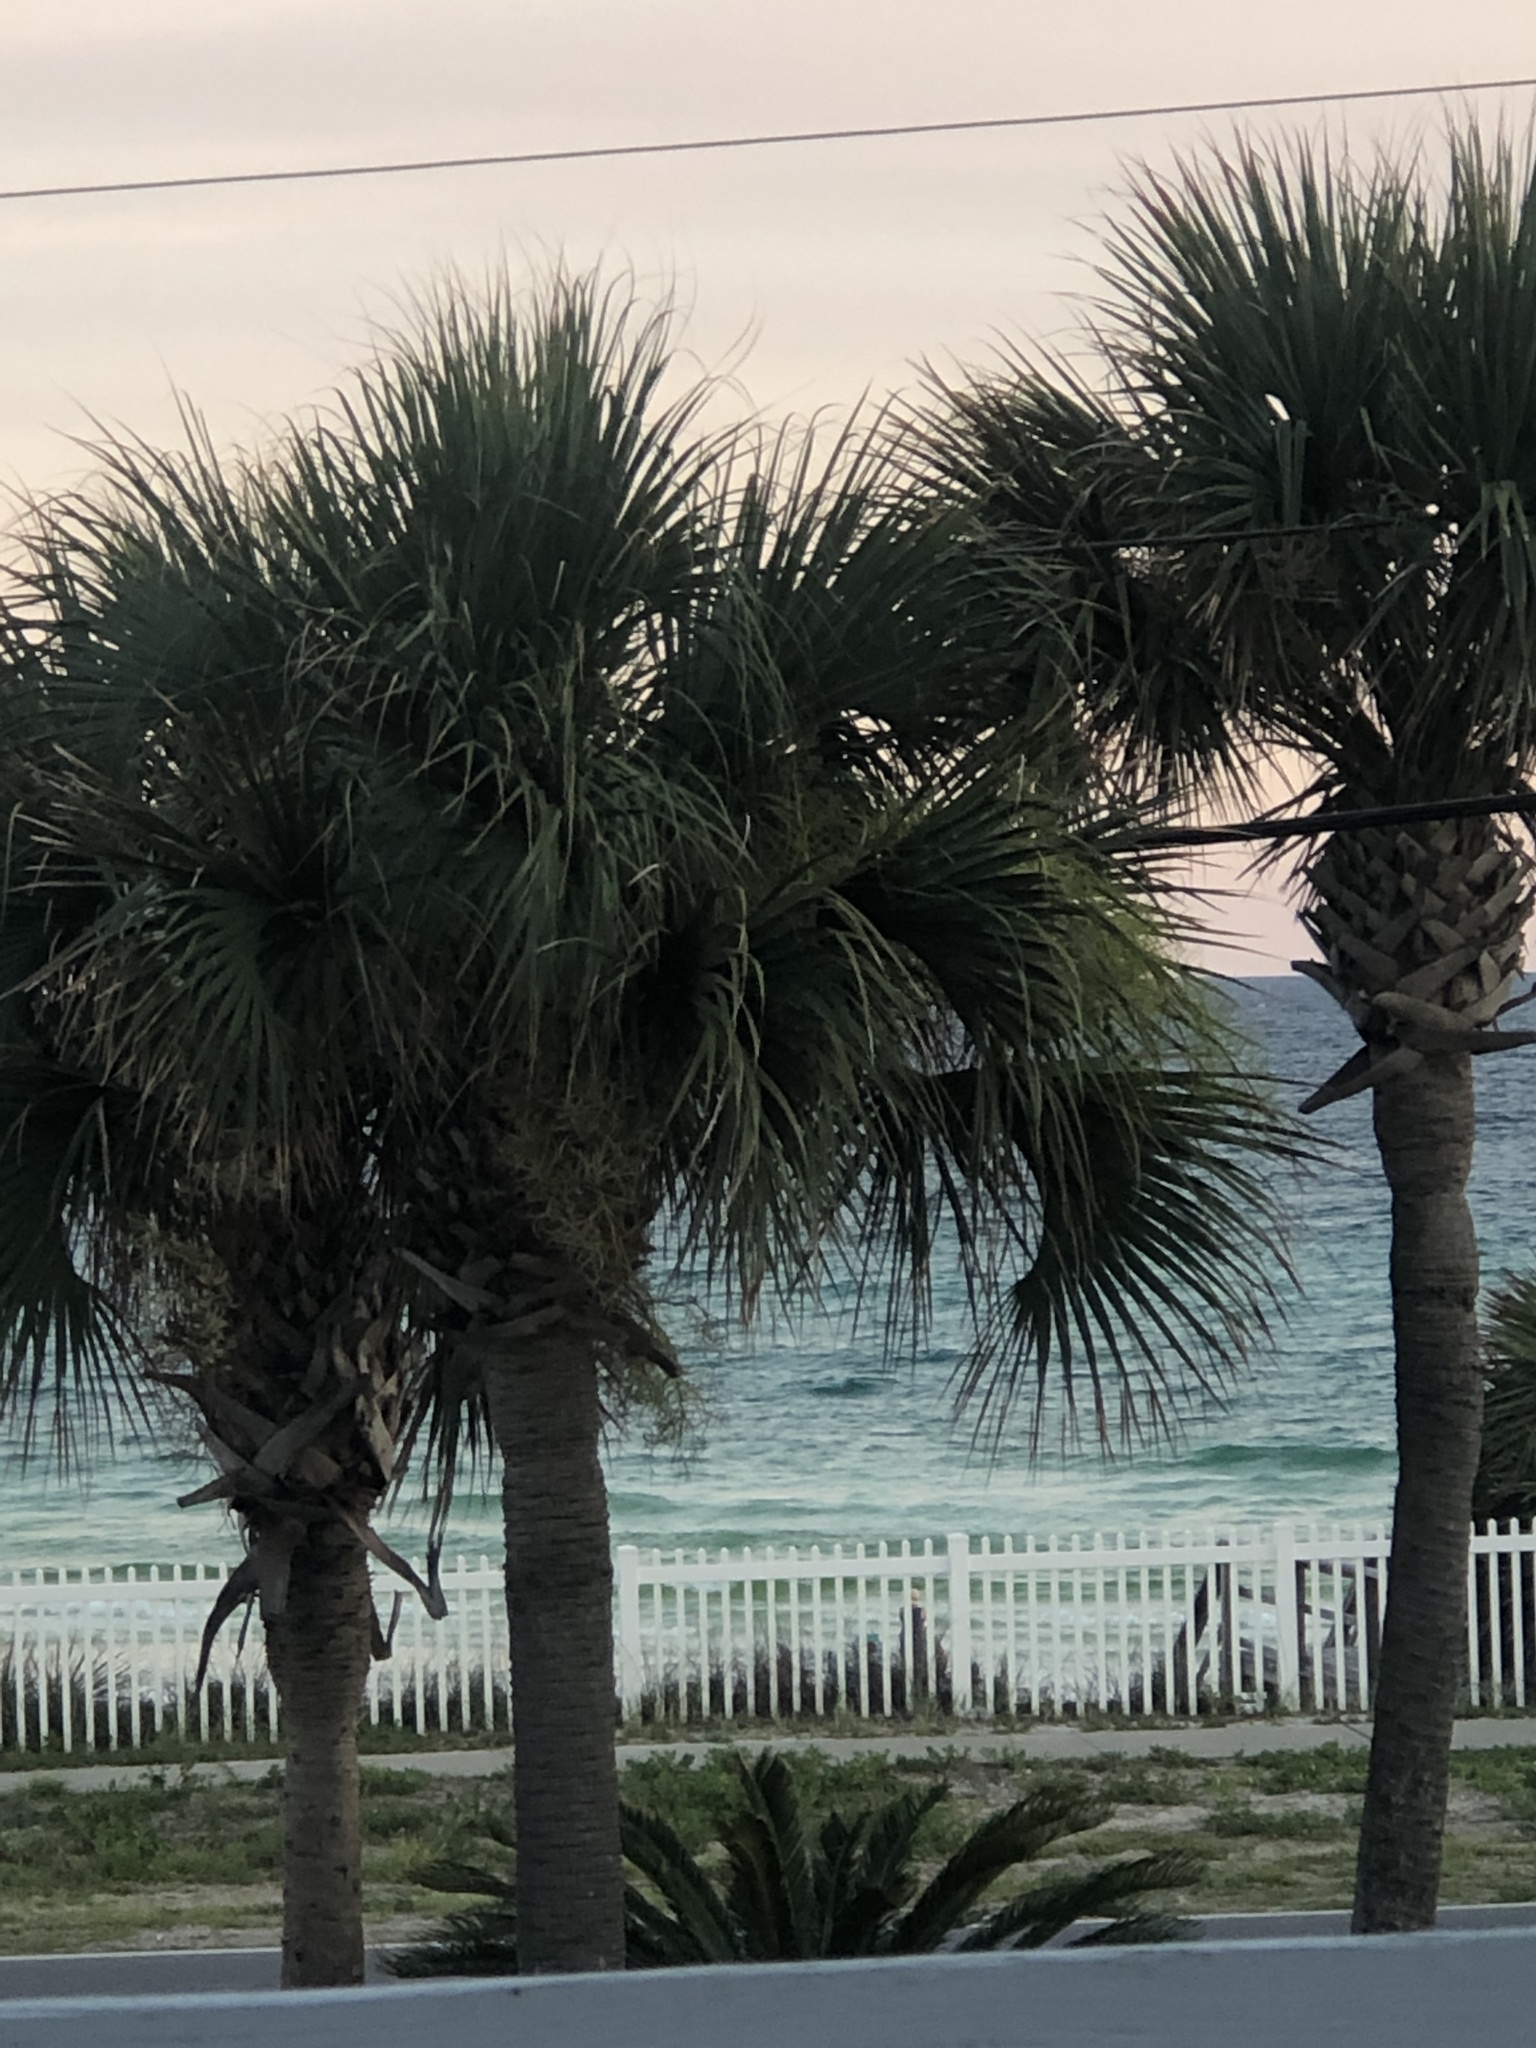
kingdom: Plantae
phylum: Tracheophyta
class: Liliopsida
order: Arecales
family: Arecaceae
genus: Sabal
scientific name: Sabal palmetto
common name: Blue palmetto
